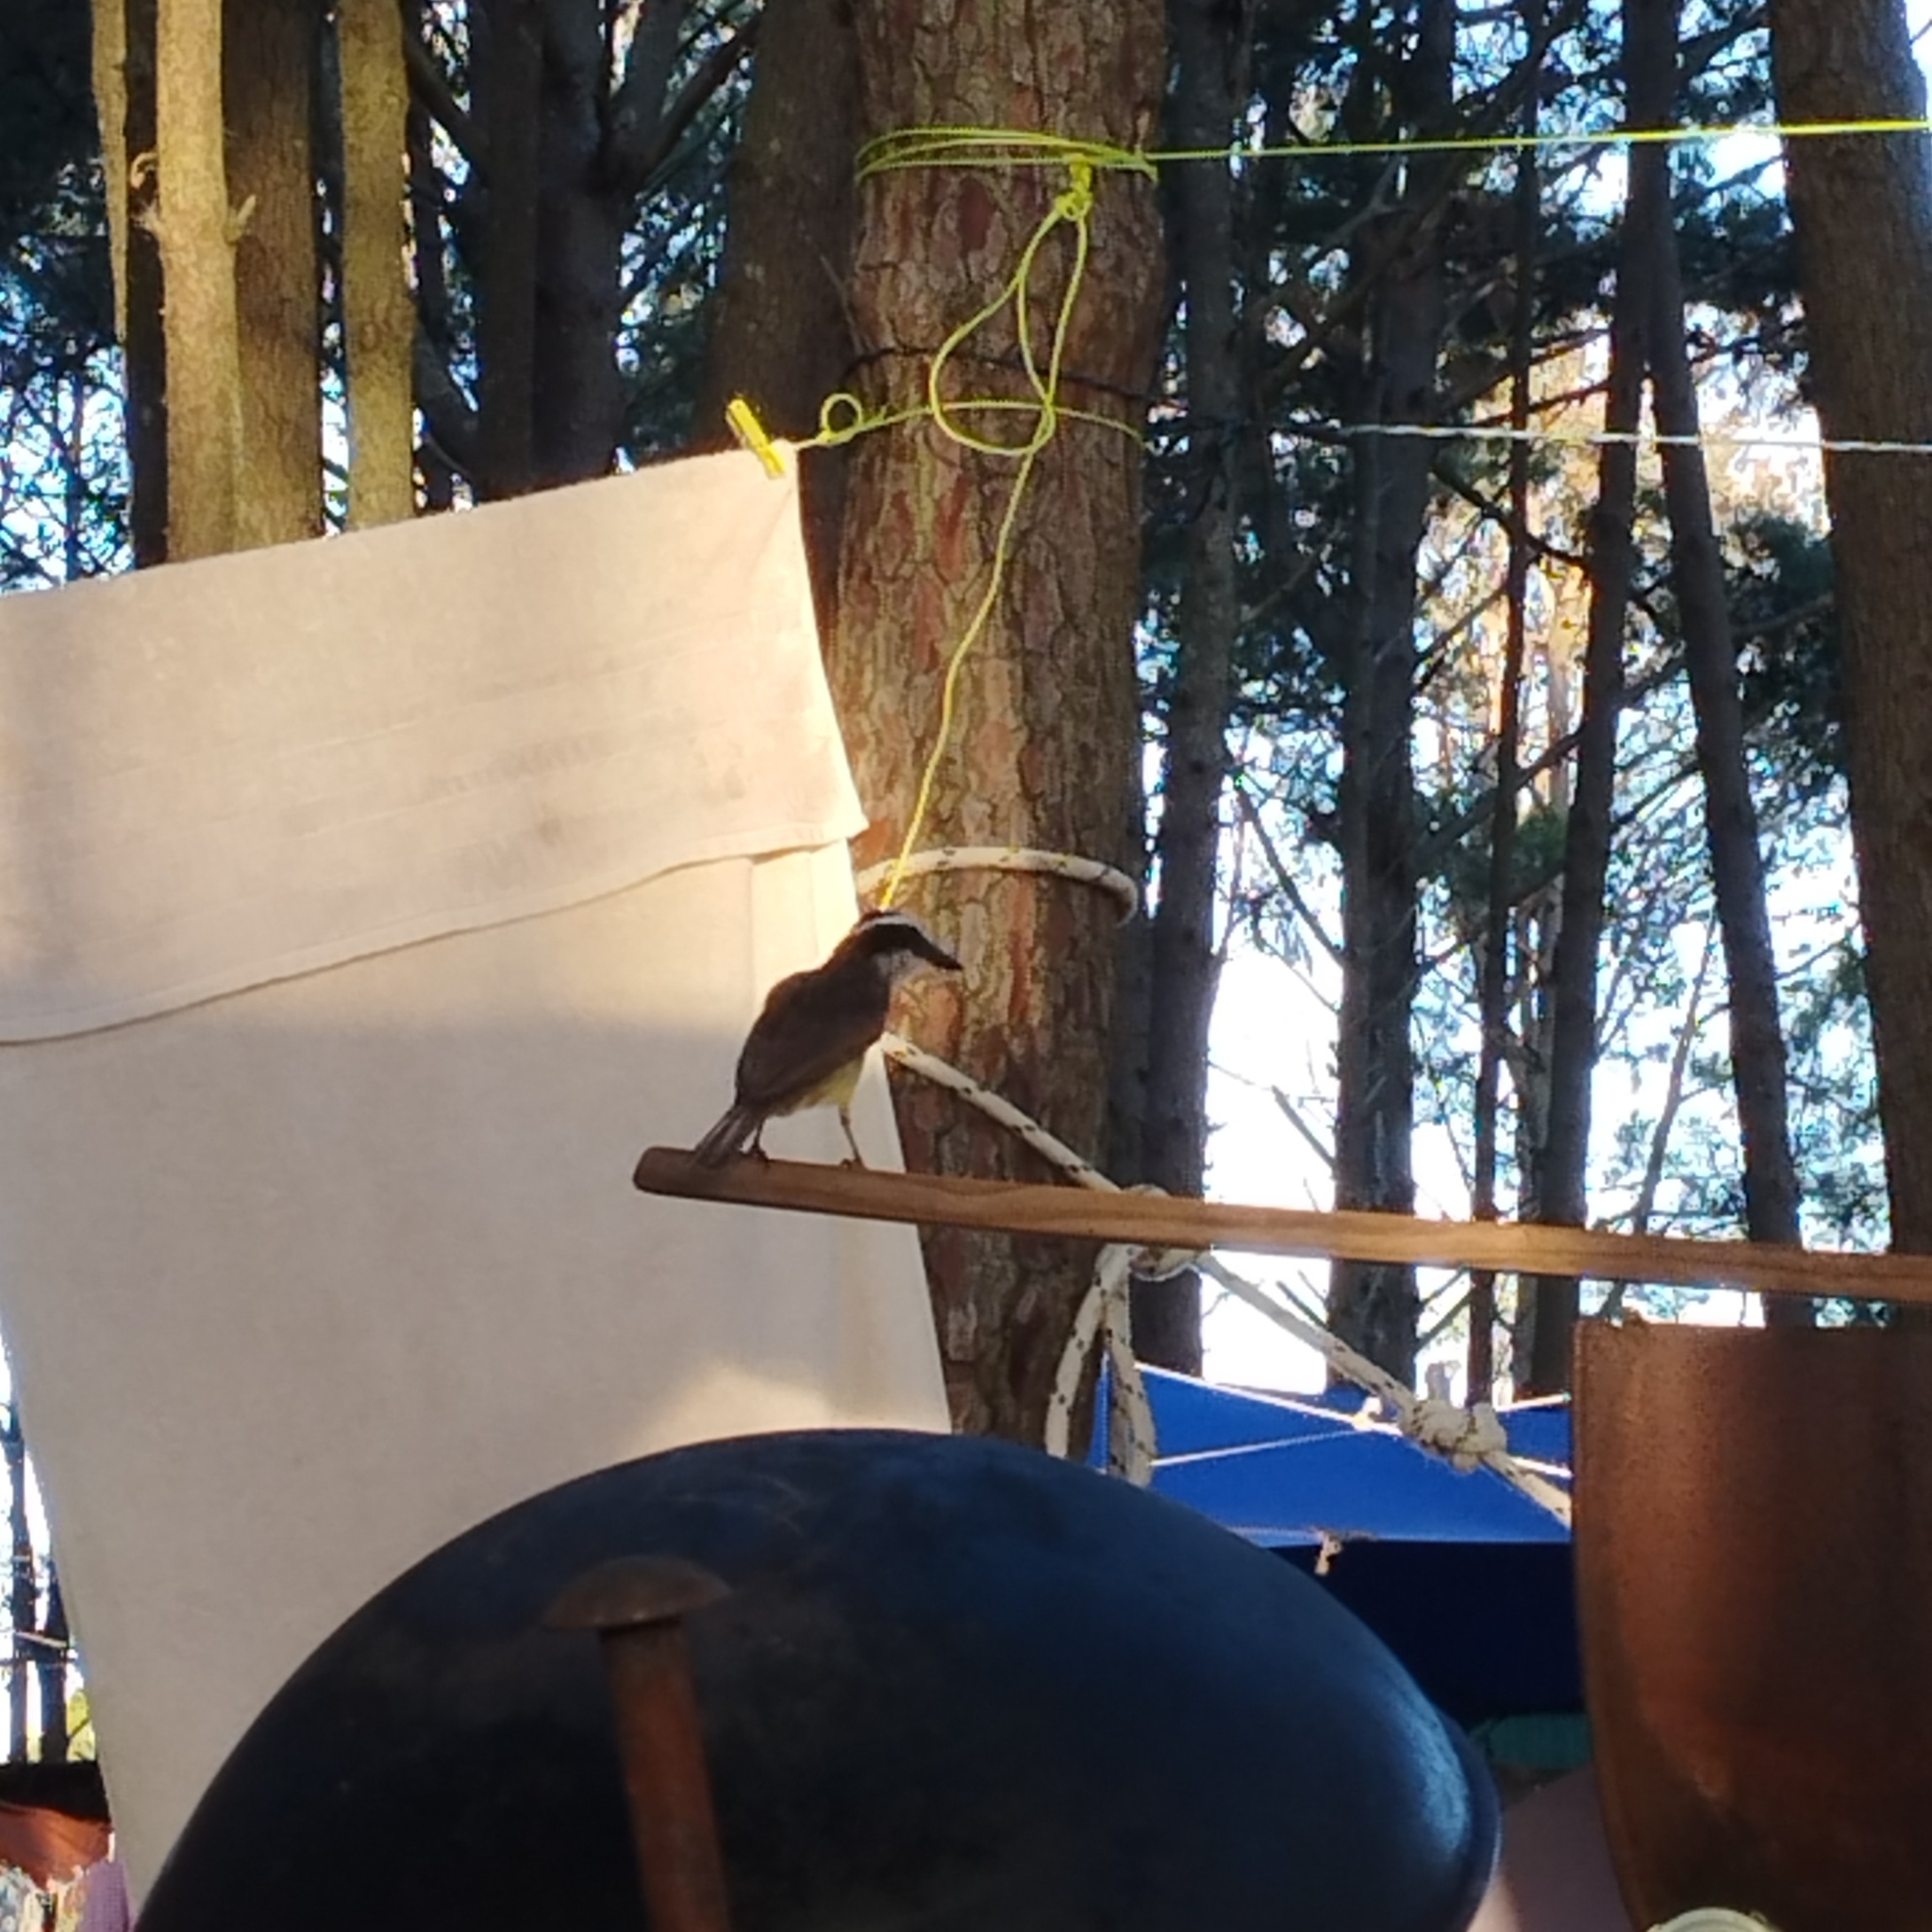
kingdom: Animalia
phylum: Chordata
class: Aves
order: Passeriformes
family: Tyrannidae
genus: Pitangus
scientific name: Pitangus sulphuratus
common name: Great kiskadee
